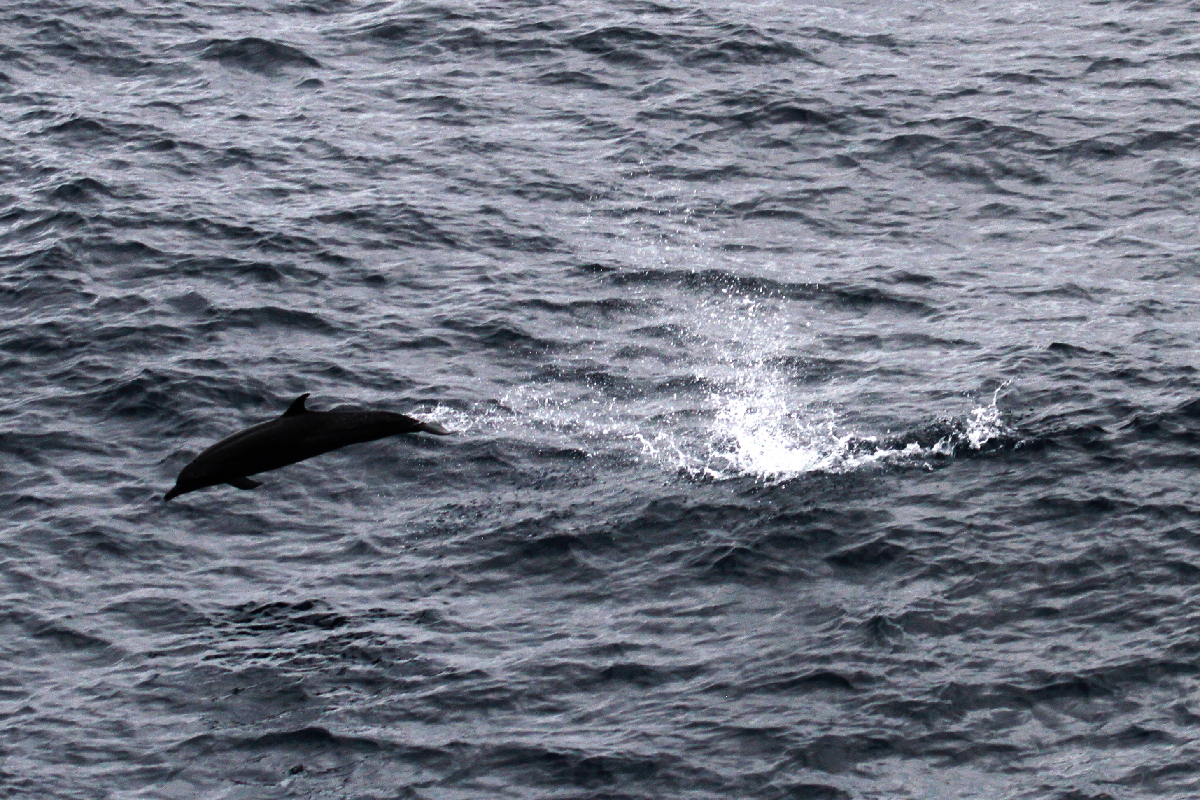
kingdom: Animalia
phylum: Chordata
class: Mammalia
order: Cetacea
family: Delphinidae
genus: Stenella
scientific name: Stenella attenuata
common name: Pantropical spotted dolphin
